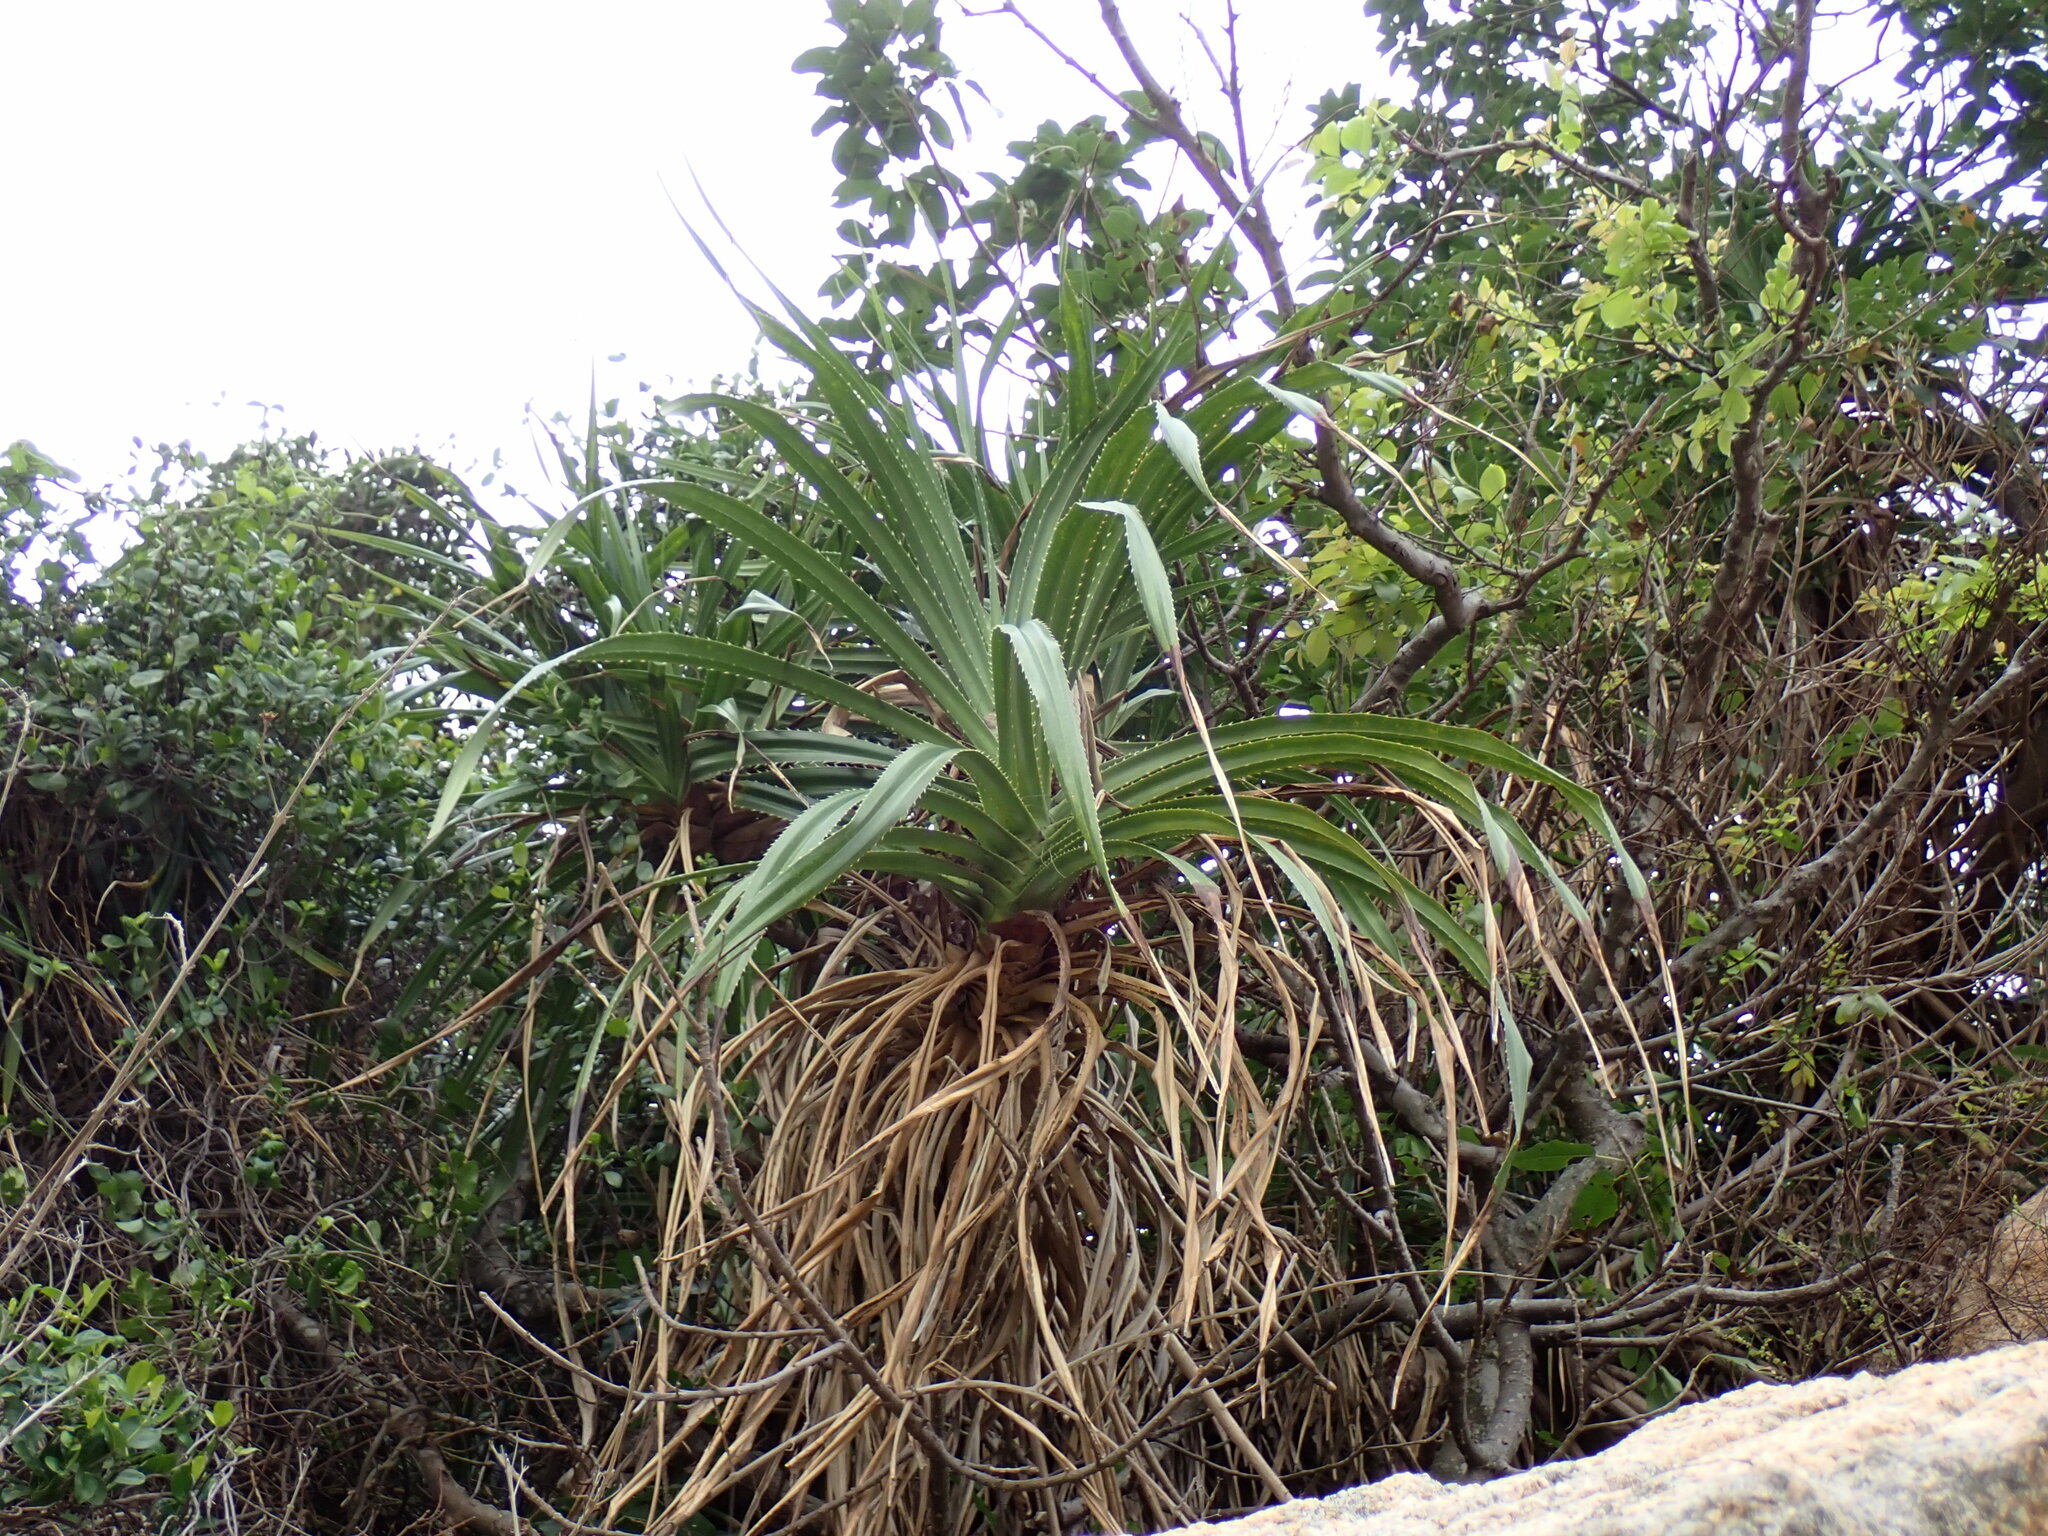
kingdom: Plantae
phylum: Tracheophyta
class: Liliopsida
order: Pandanales
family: Pandanaceae
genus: Pandanus
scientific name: Pandanus tectorius
